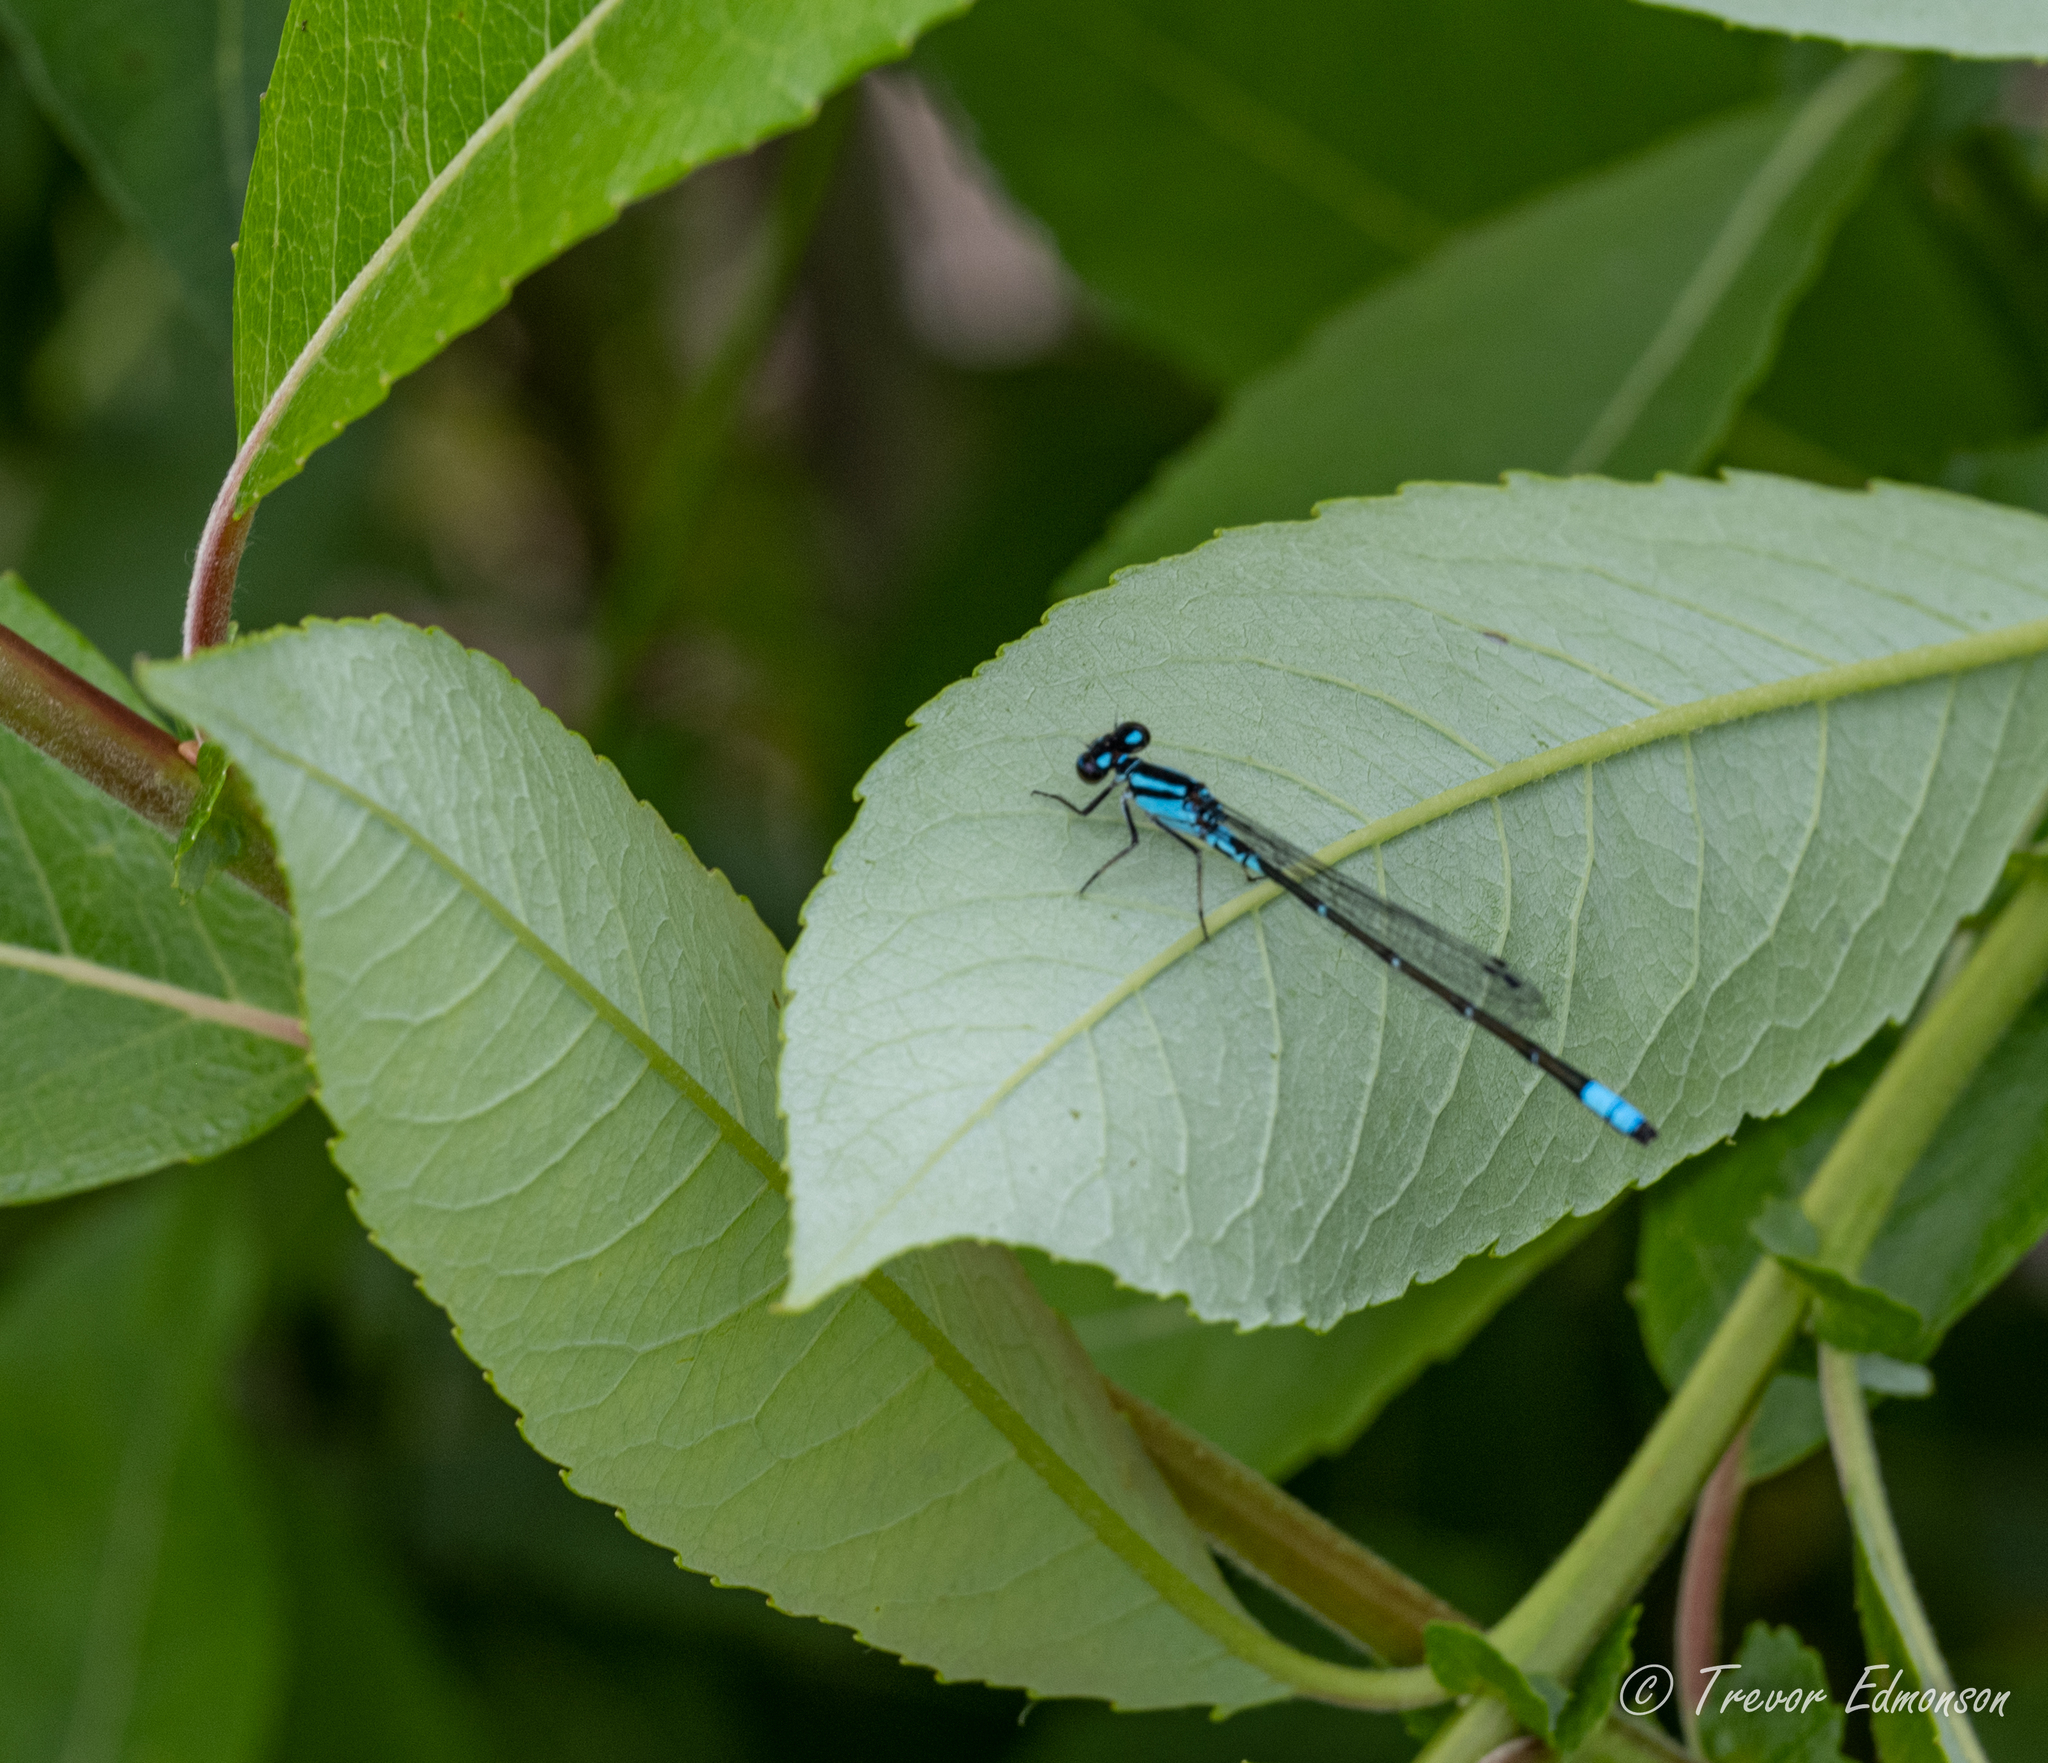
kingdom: Animalia
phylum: Arthropoda
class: Insecta
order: Odonata
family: Coenagrionidae
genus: Enallagma
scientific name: Enallagma geminatum
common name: Skimming bluet
